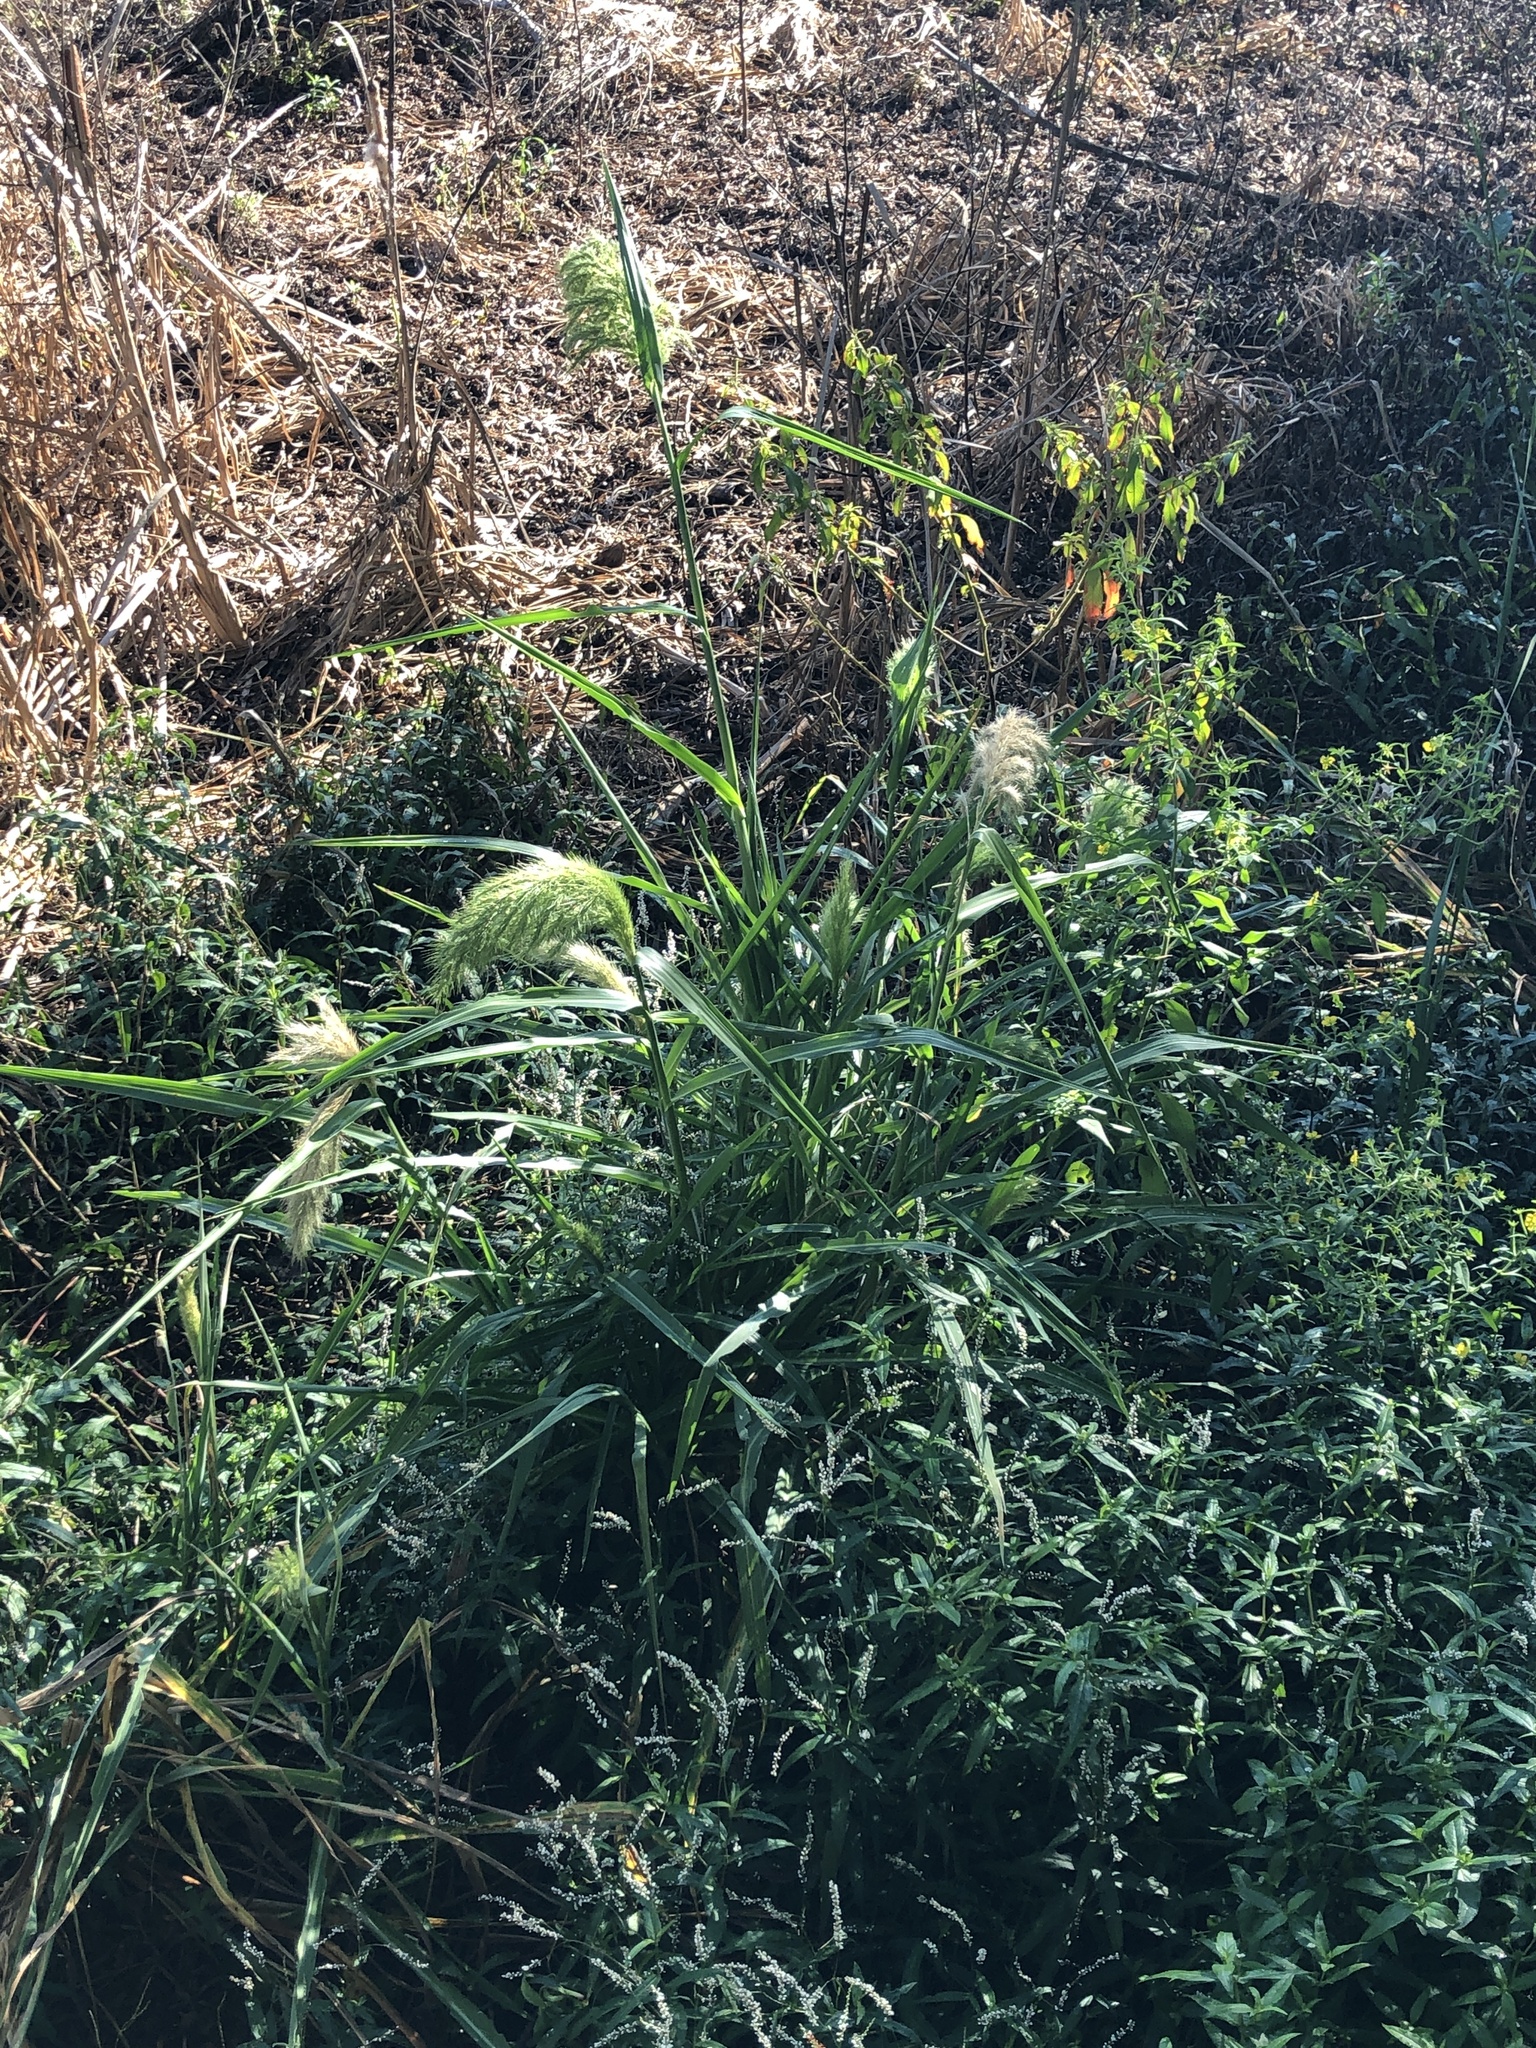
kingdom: Plantae
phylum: Tracheophyta
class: Liliopsida
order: Poales
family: Poaceae
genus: Echinochloa
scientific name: Echinochloa walteri
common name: Coast barnyard grass
